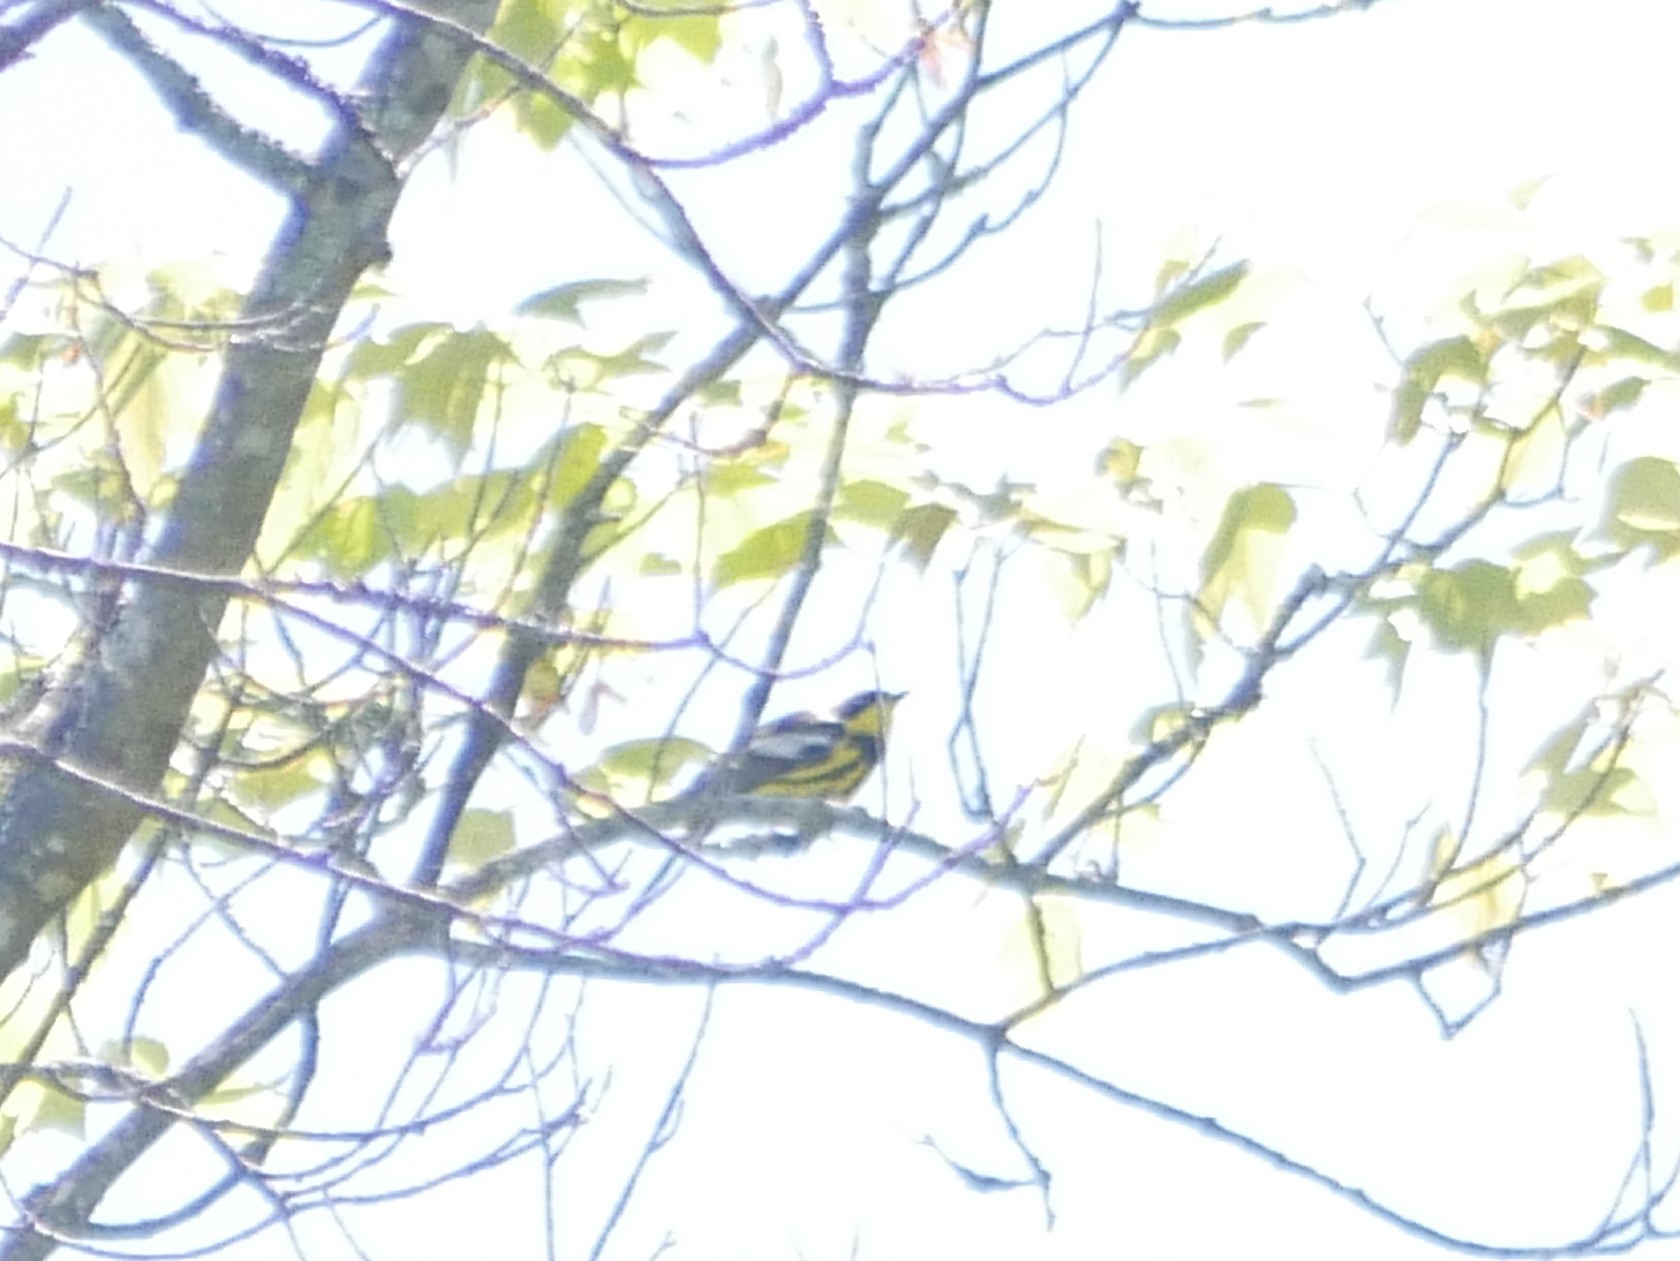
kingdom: Animalia
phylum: Chordata
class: Aves
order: Passeriformes
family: Parulidae
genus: Setophaga
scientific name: Setophaga magnolia
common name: Magnolia warbler
